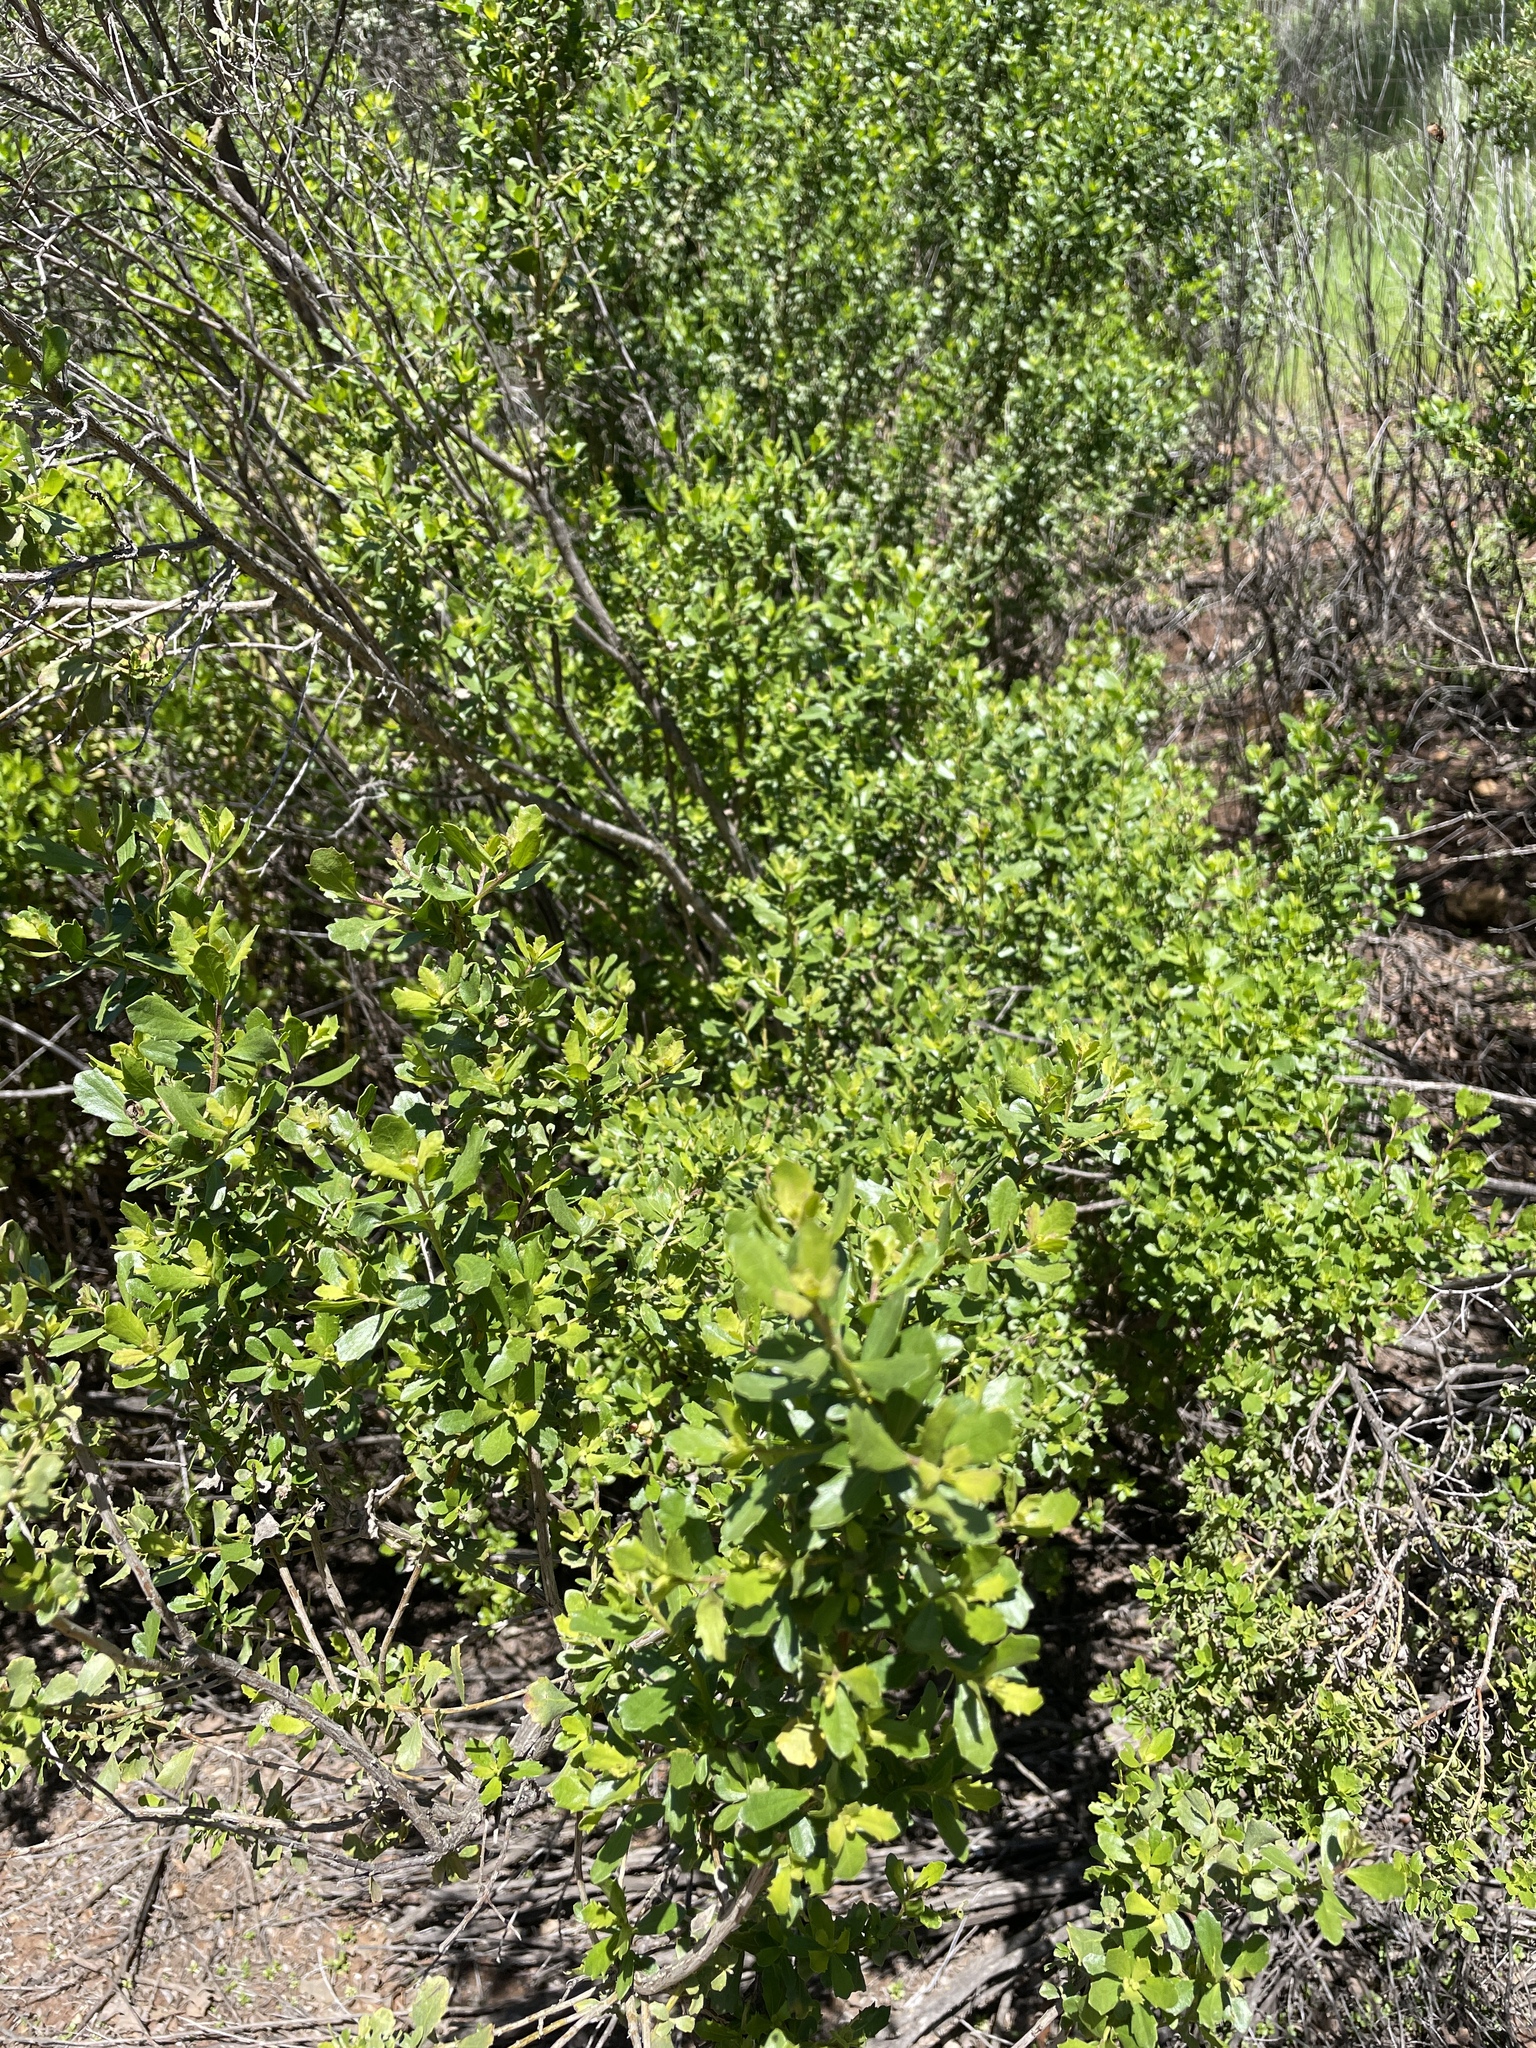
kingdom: Plantae
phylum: Tracheophyta
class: Magnoliopsida
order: Asterales
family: Asteraceae
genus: Baccharis
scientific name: Baccharis pilularis
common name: Coyotebrush
